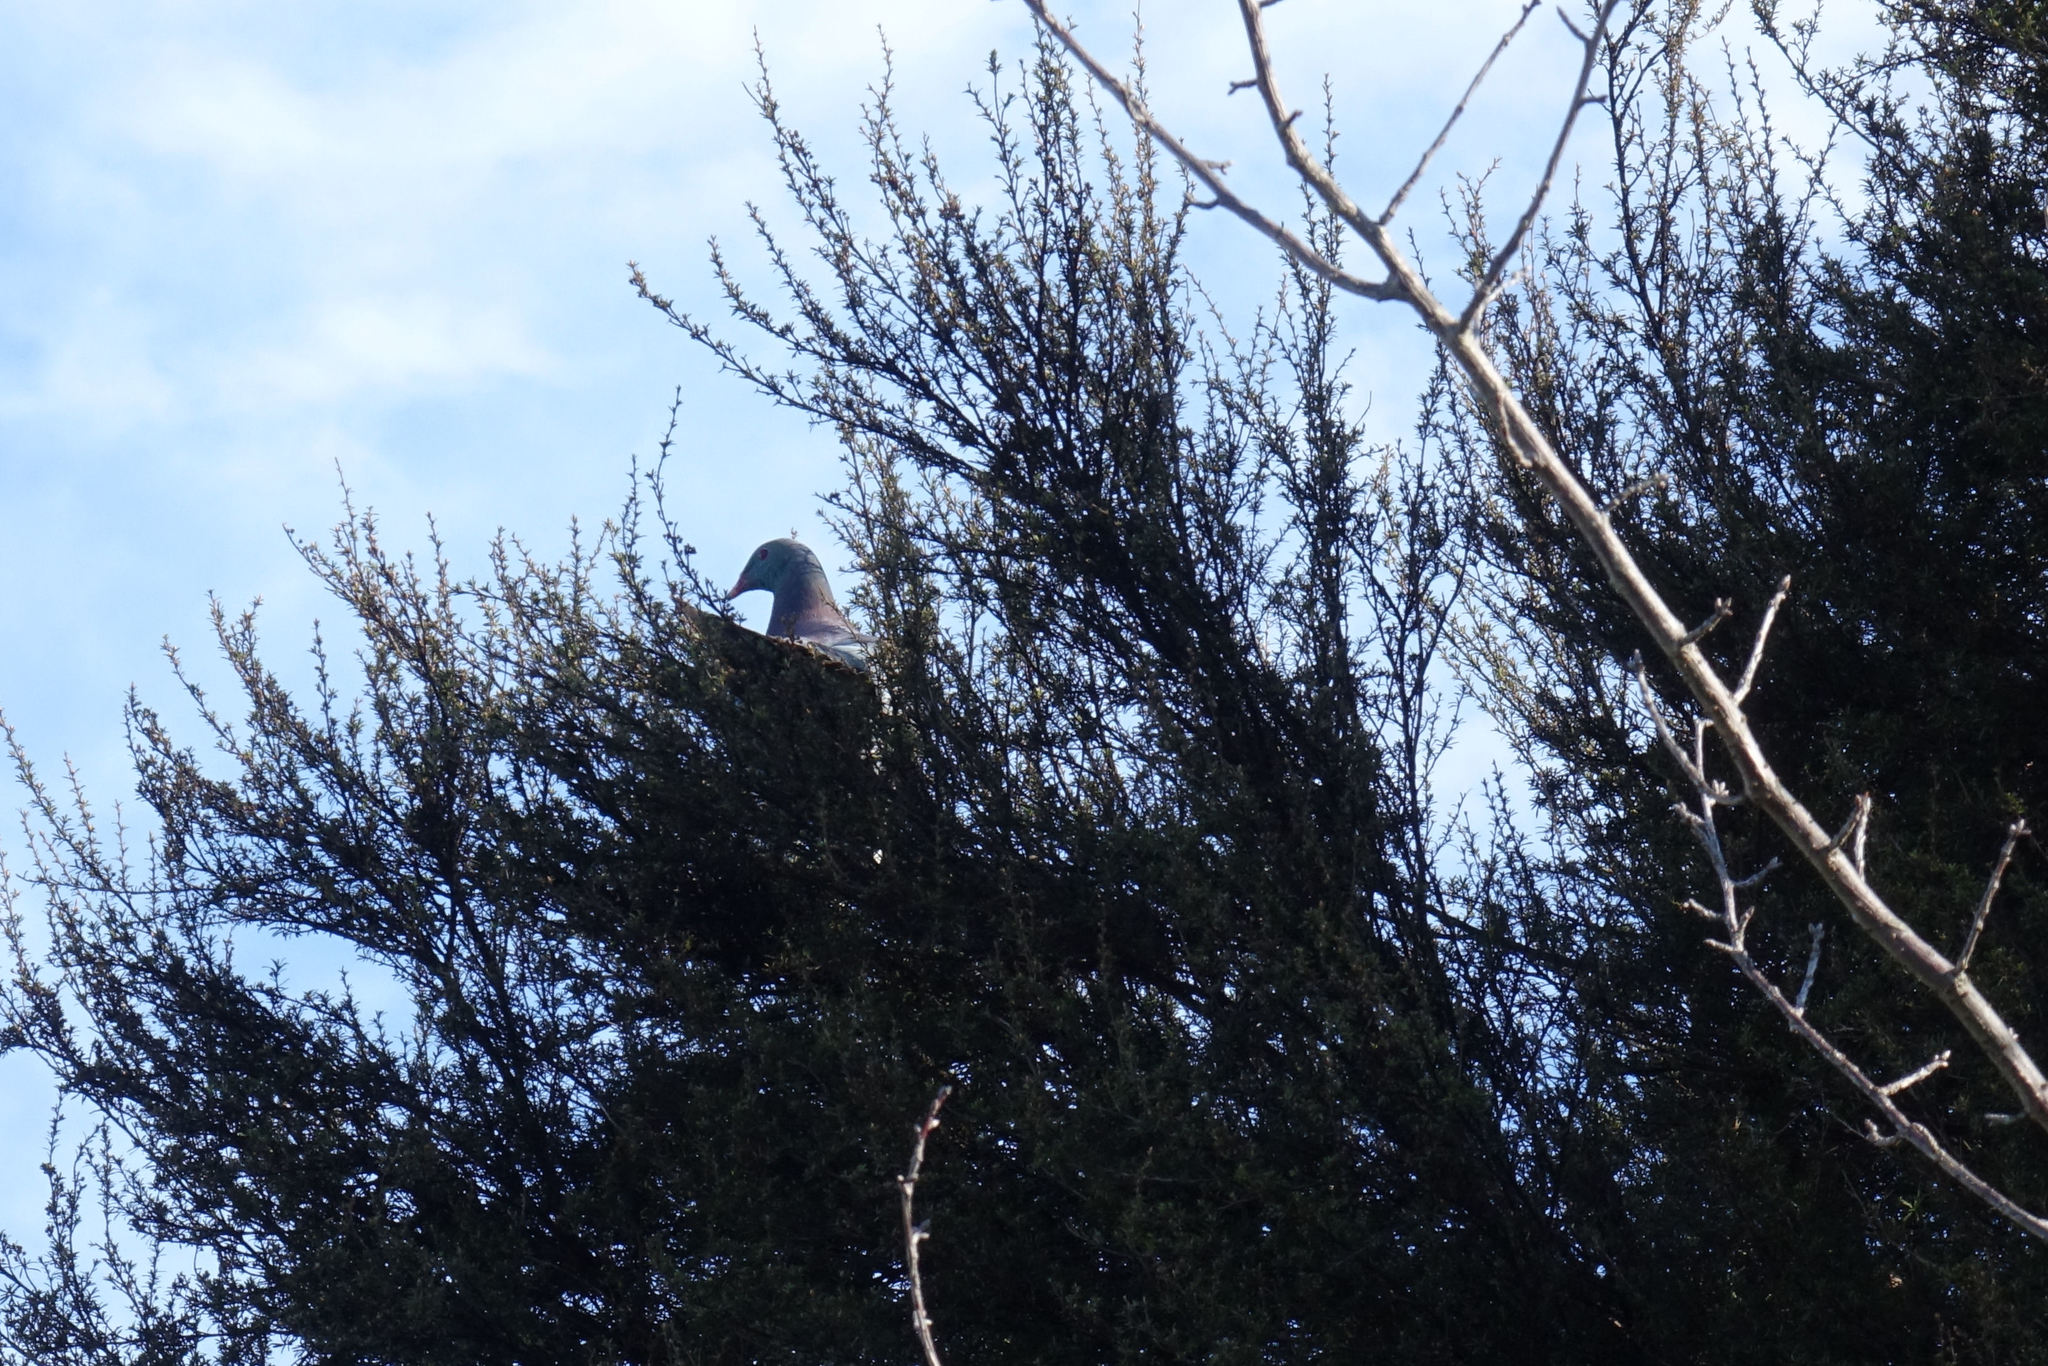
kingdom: Animalia
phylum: Chordata
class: Aves
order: Columbiformes
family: Columbidae
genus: Hemiphaga
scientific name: Hemiphaga novaeseelandiae
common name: New zealand pigeon
